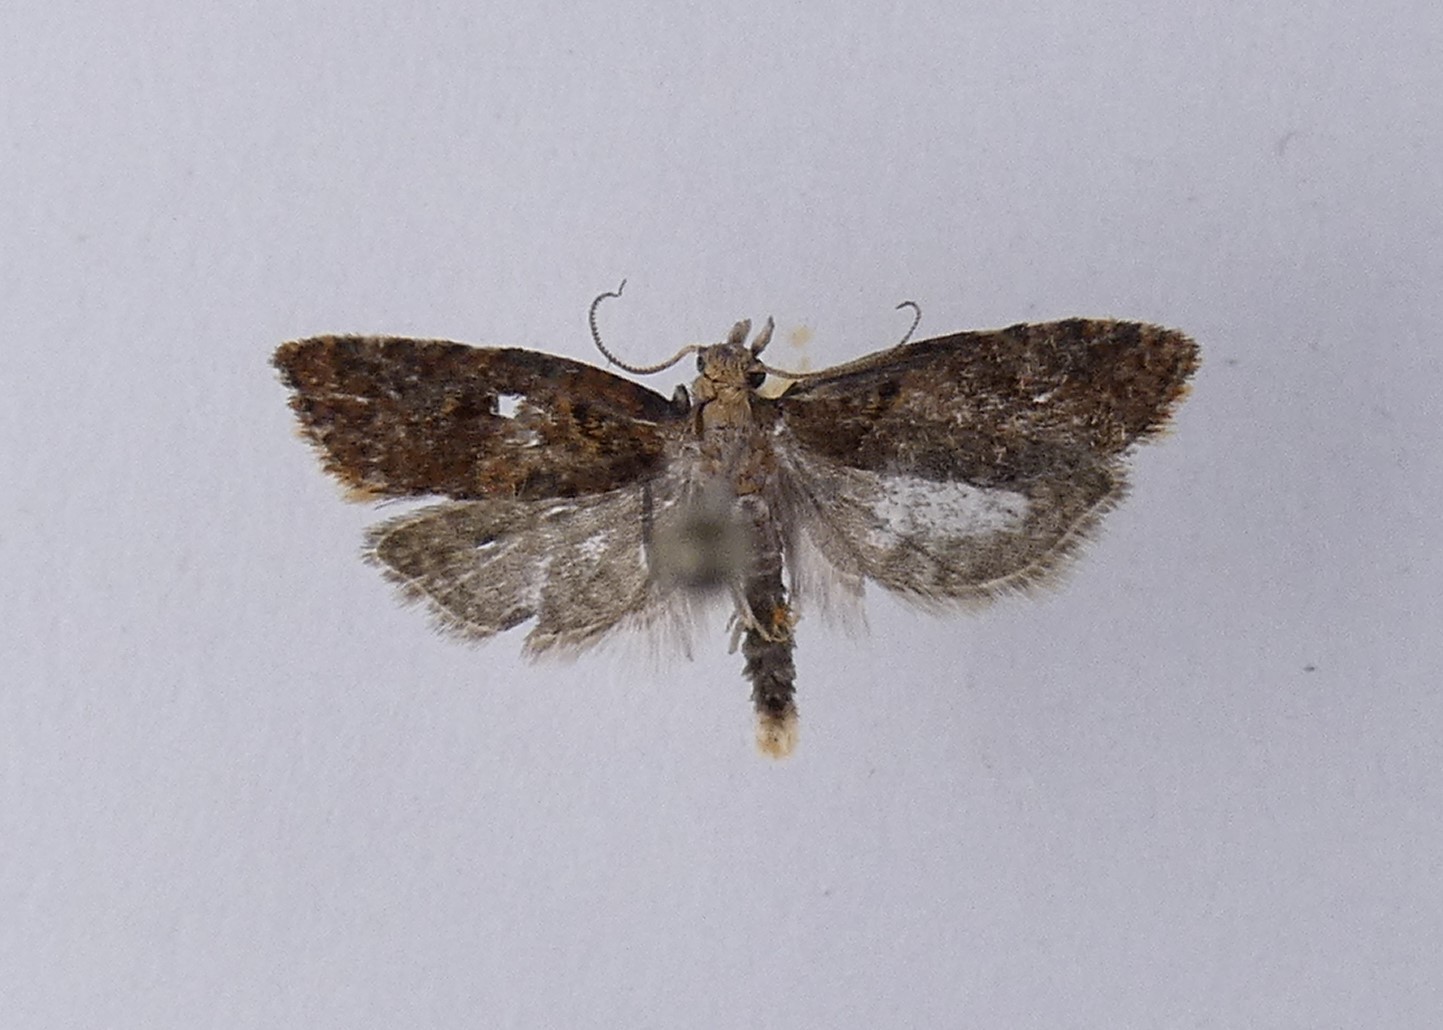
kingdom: Animalia
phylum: Arthropoda
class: Insecta
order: Lepidoptera
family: Tortricidae
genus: Capua
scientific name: Capua semiferana
